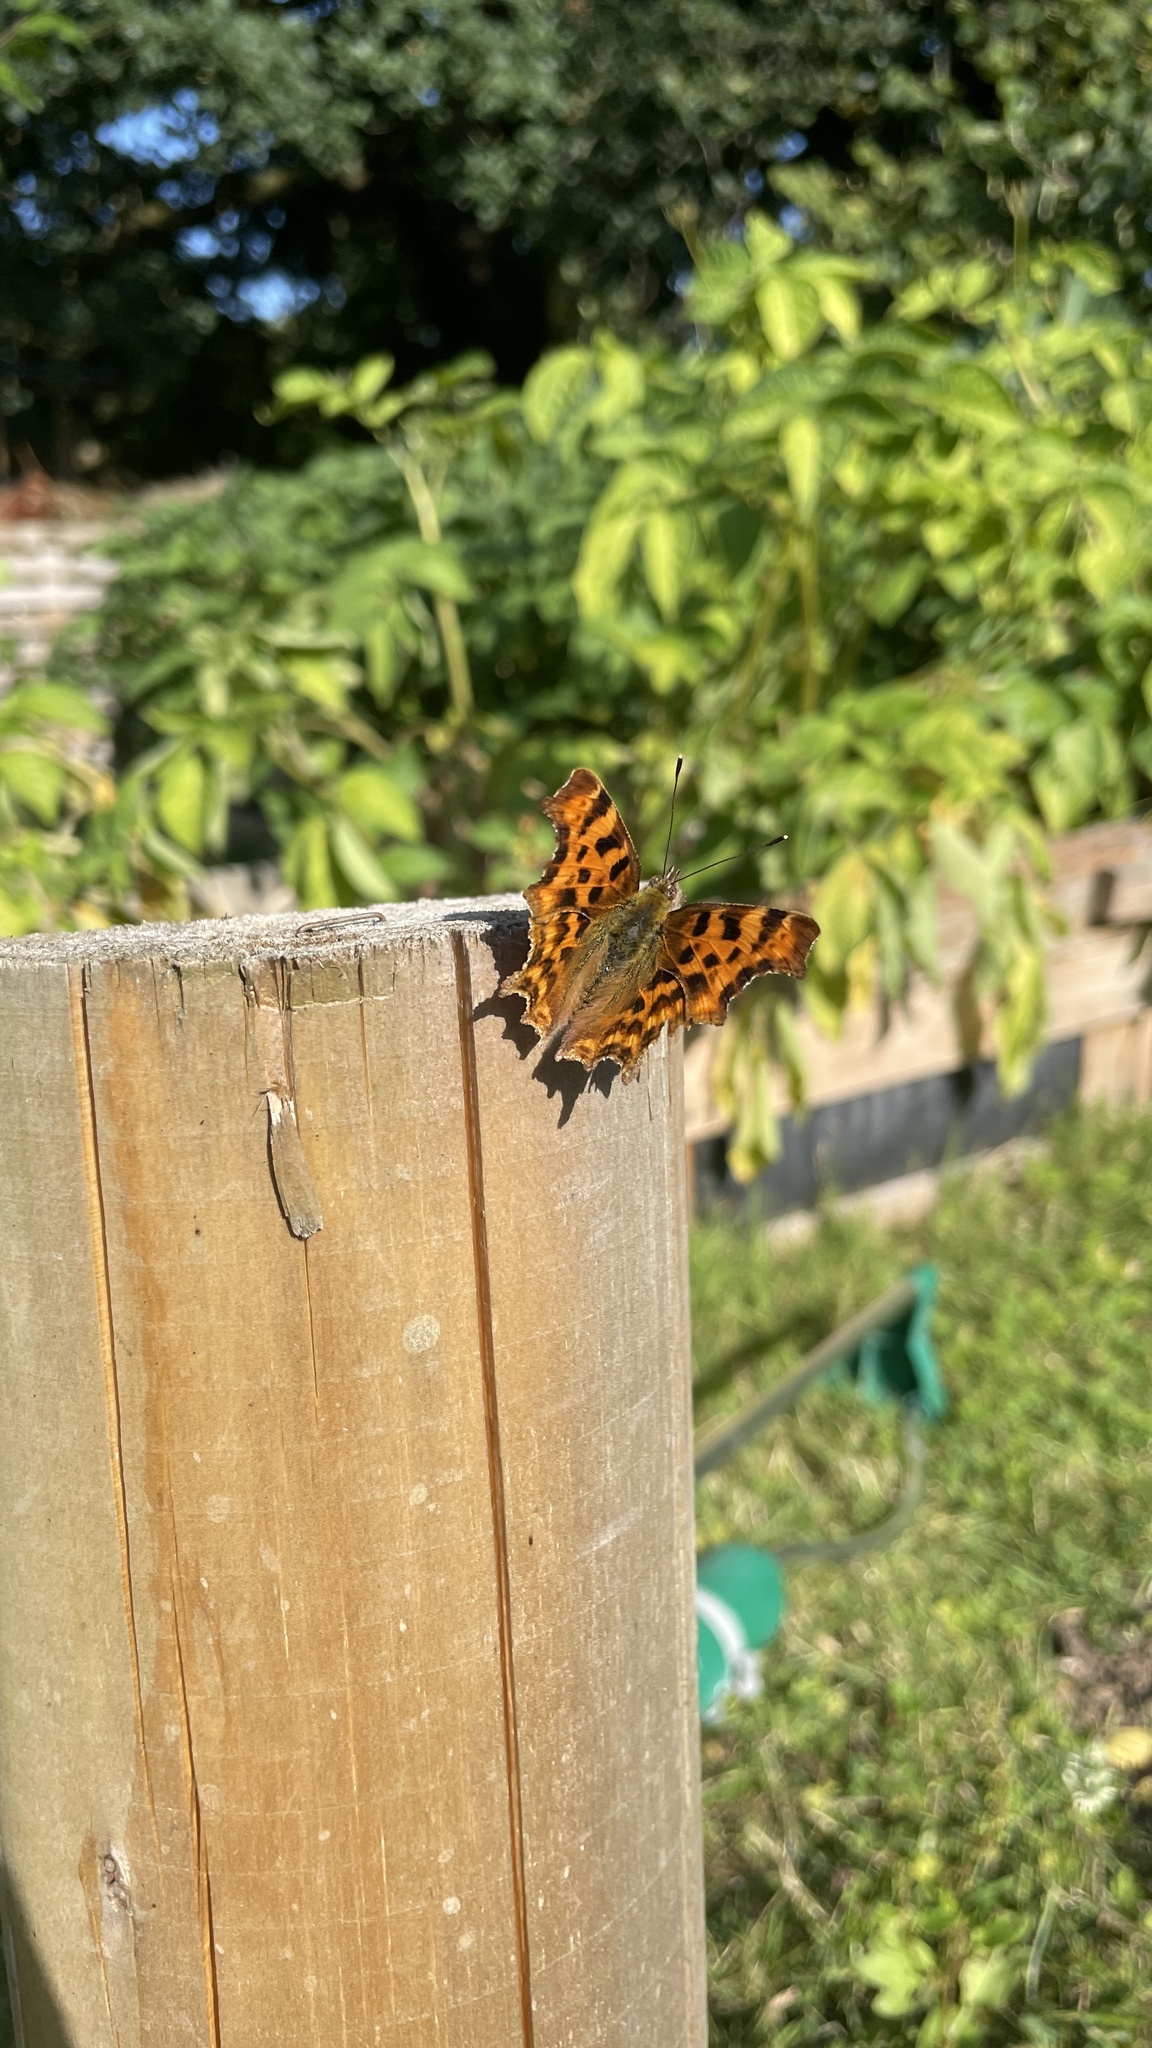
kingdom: Animalia
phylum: Arthropoda
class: Insecta
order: Lepidoptera
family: Nymphalidae
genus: Polygonia
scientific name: Polygonia c-album
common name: Comma
